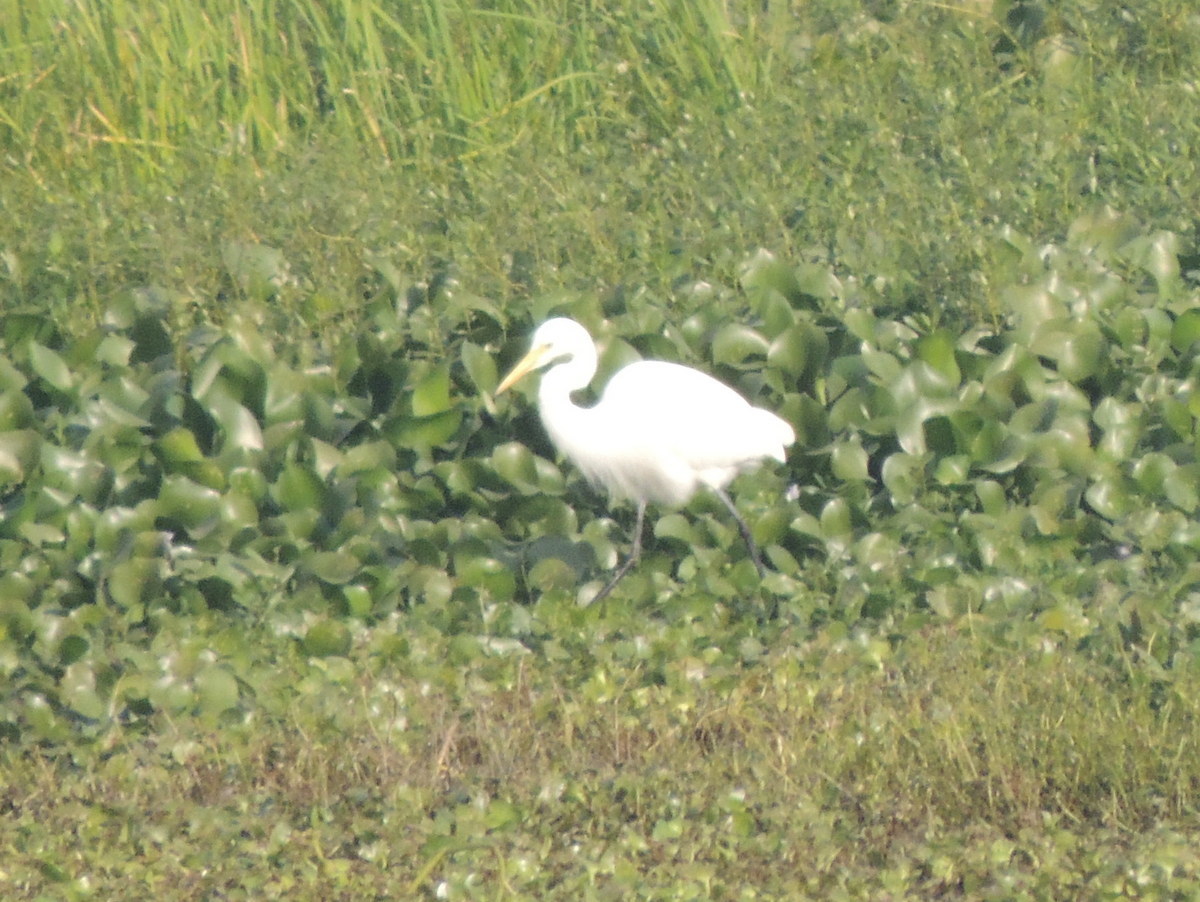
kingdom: Animalia
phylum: Chordata
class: Aves
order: Pelecaniformes
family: Ardeidae
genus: Ardea
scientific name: Ardea alba
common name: Great egret
